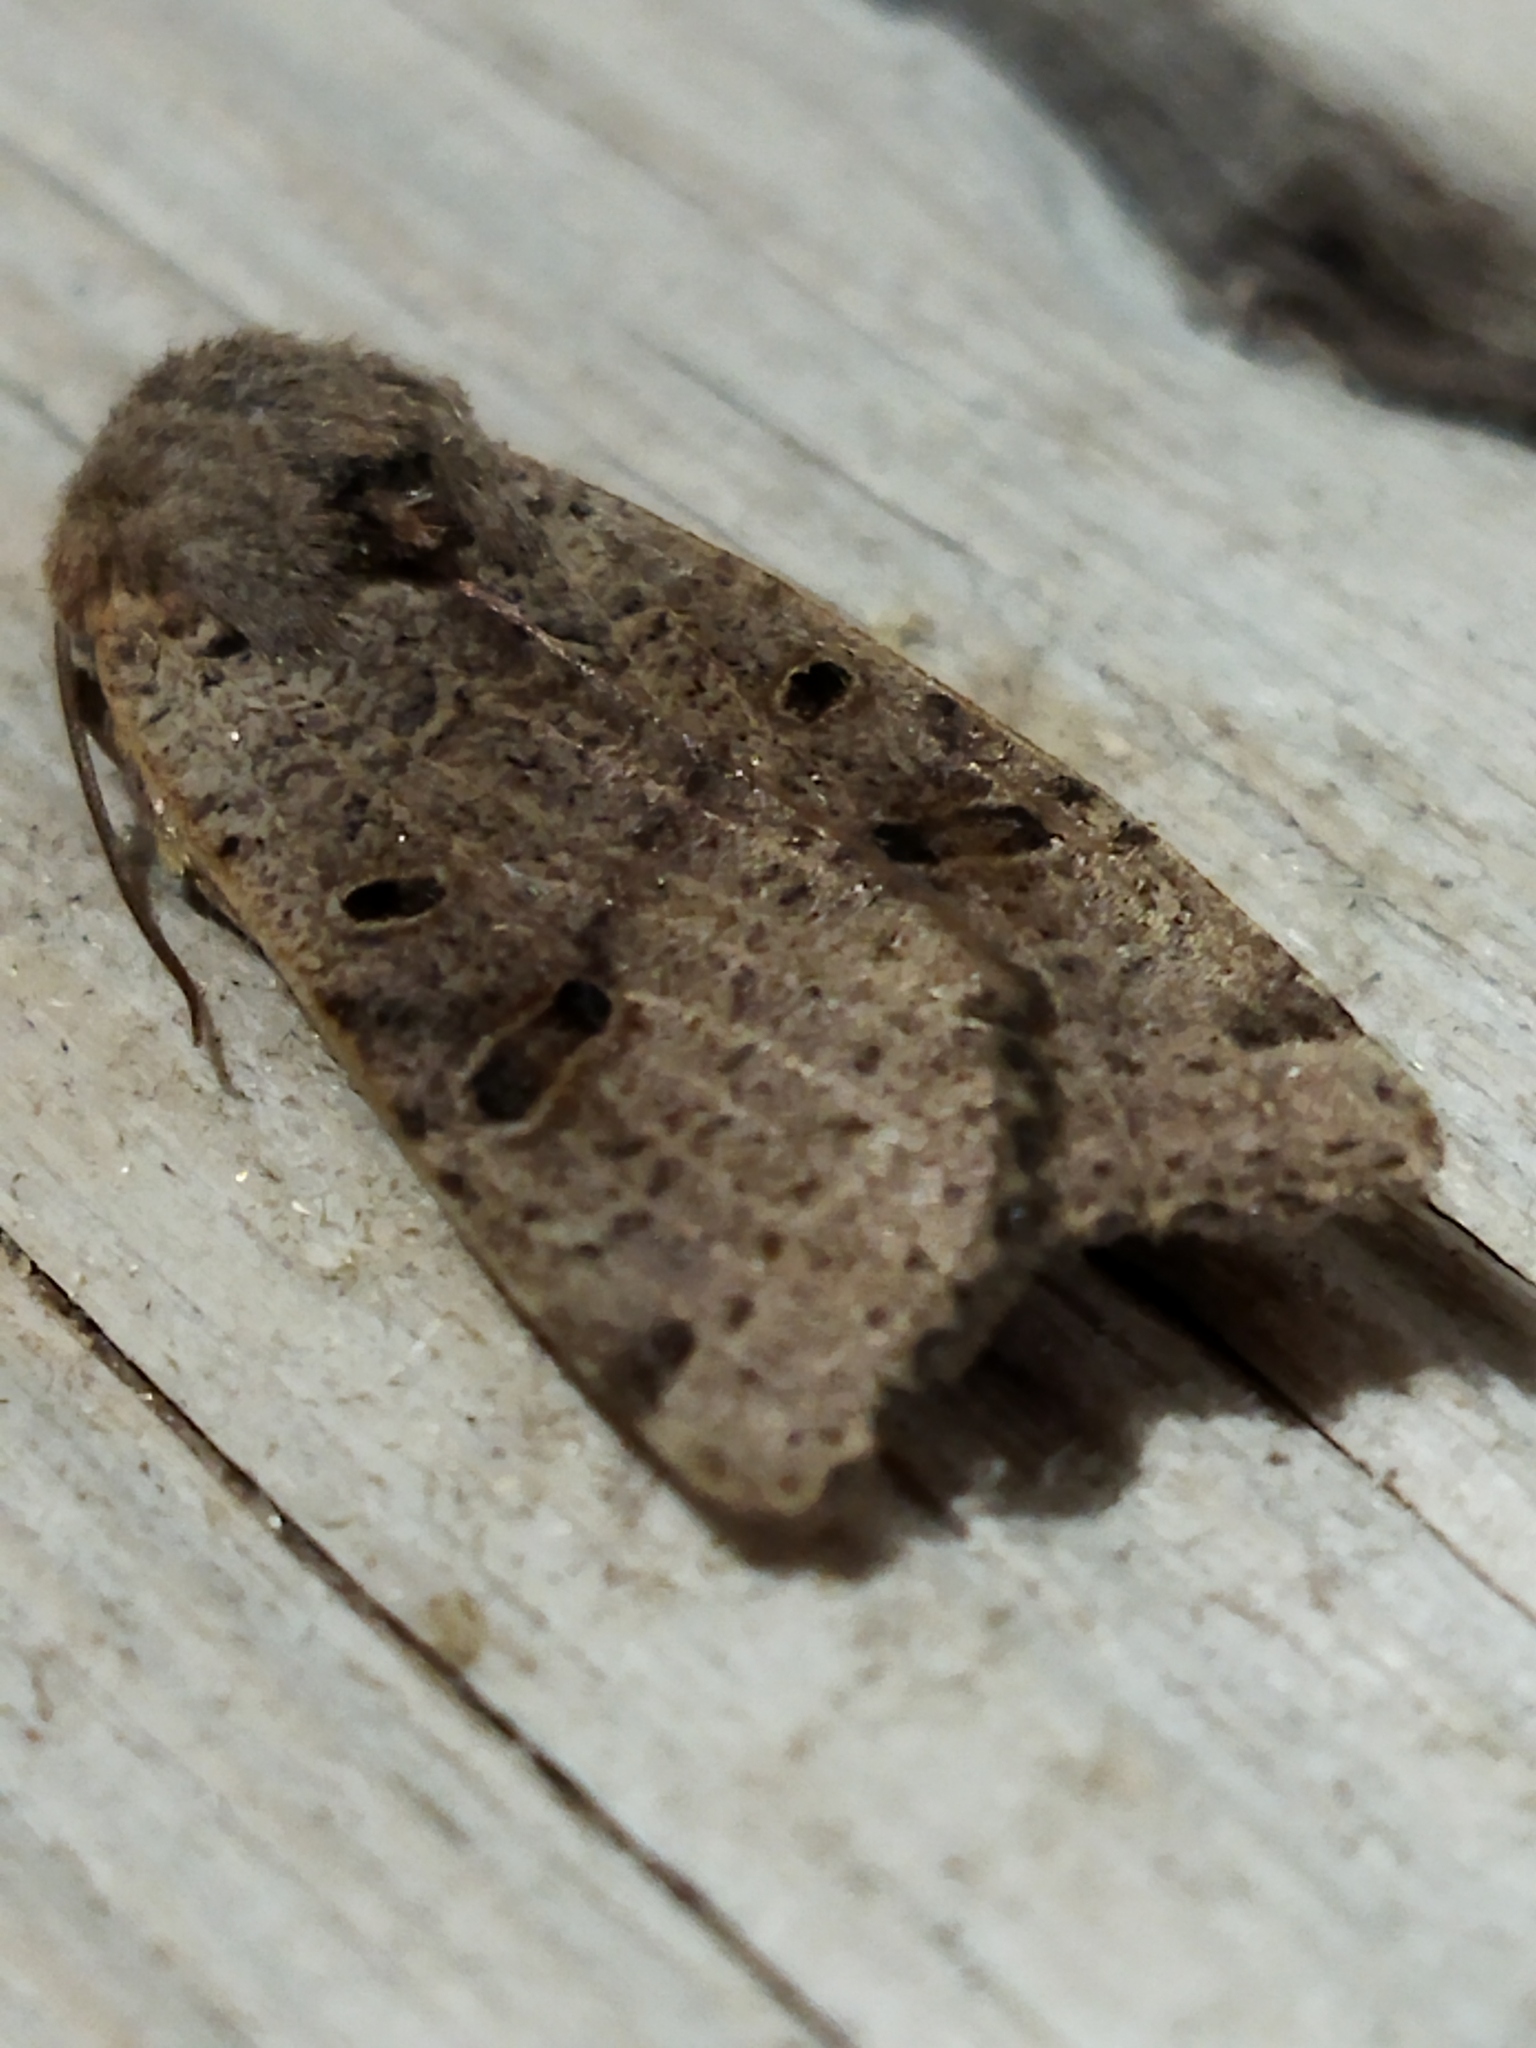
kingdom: Animalia
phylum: Arthropoda
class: Insecta
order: Lepidoptera
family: Noctuidae
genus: Agrochola
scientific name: Agrochola lychnidis
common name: Beaded chestnut
